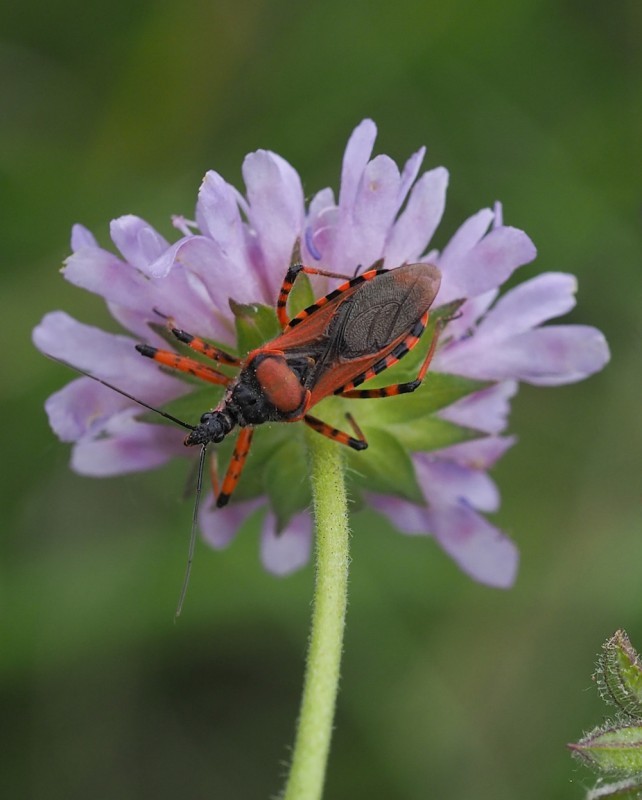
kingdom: Animalia
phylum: Arthropoda
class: Insecta
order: Hemiptera
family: Reduviidae
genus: Rhynocoris
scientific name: Rhynocoris iracundus
